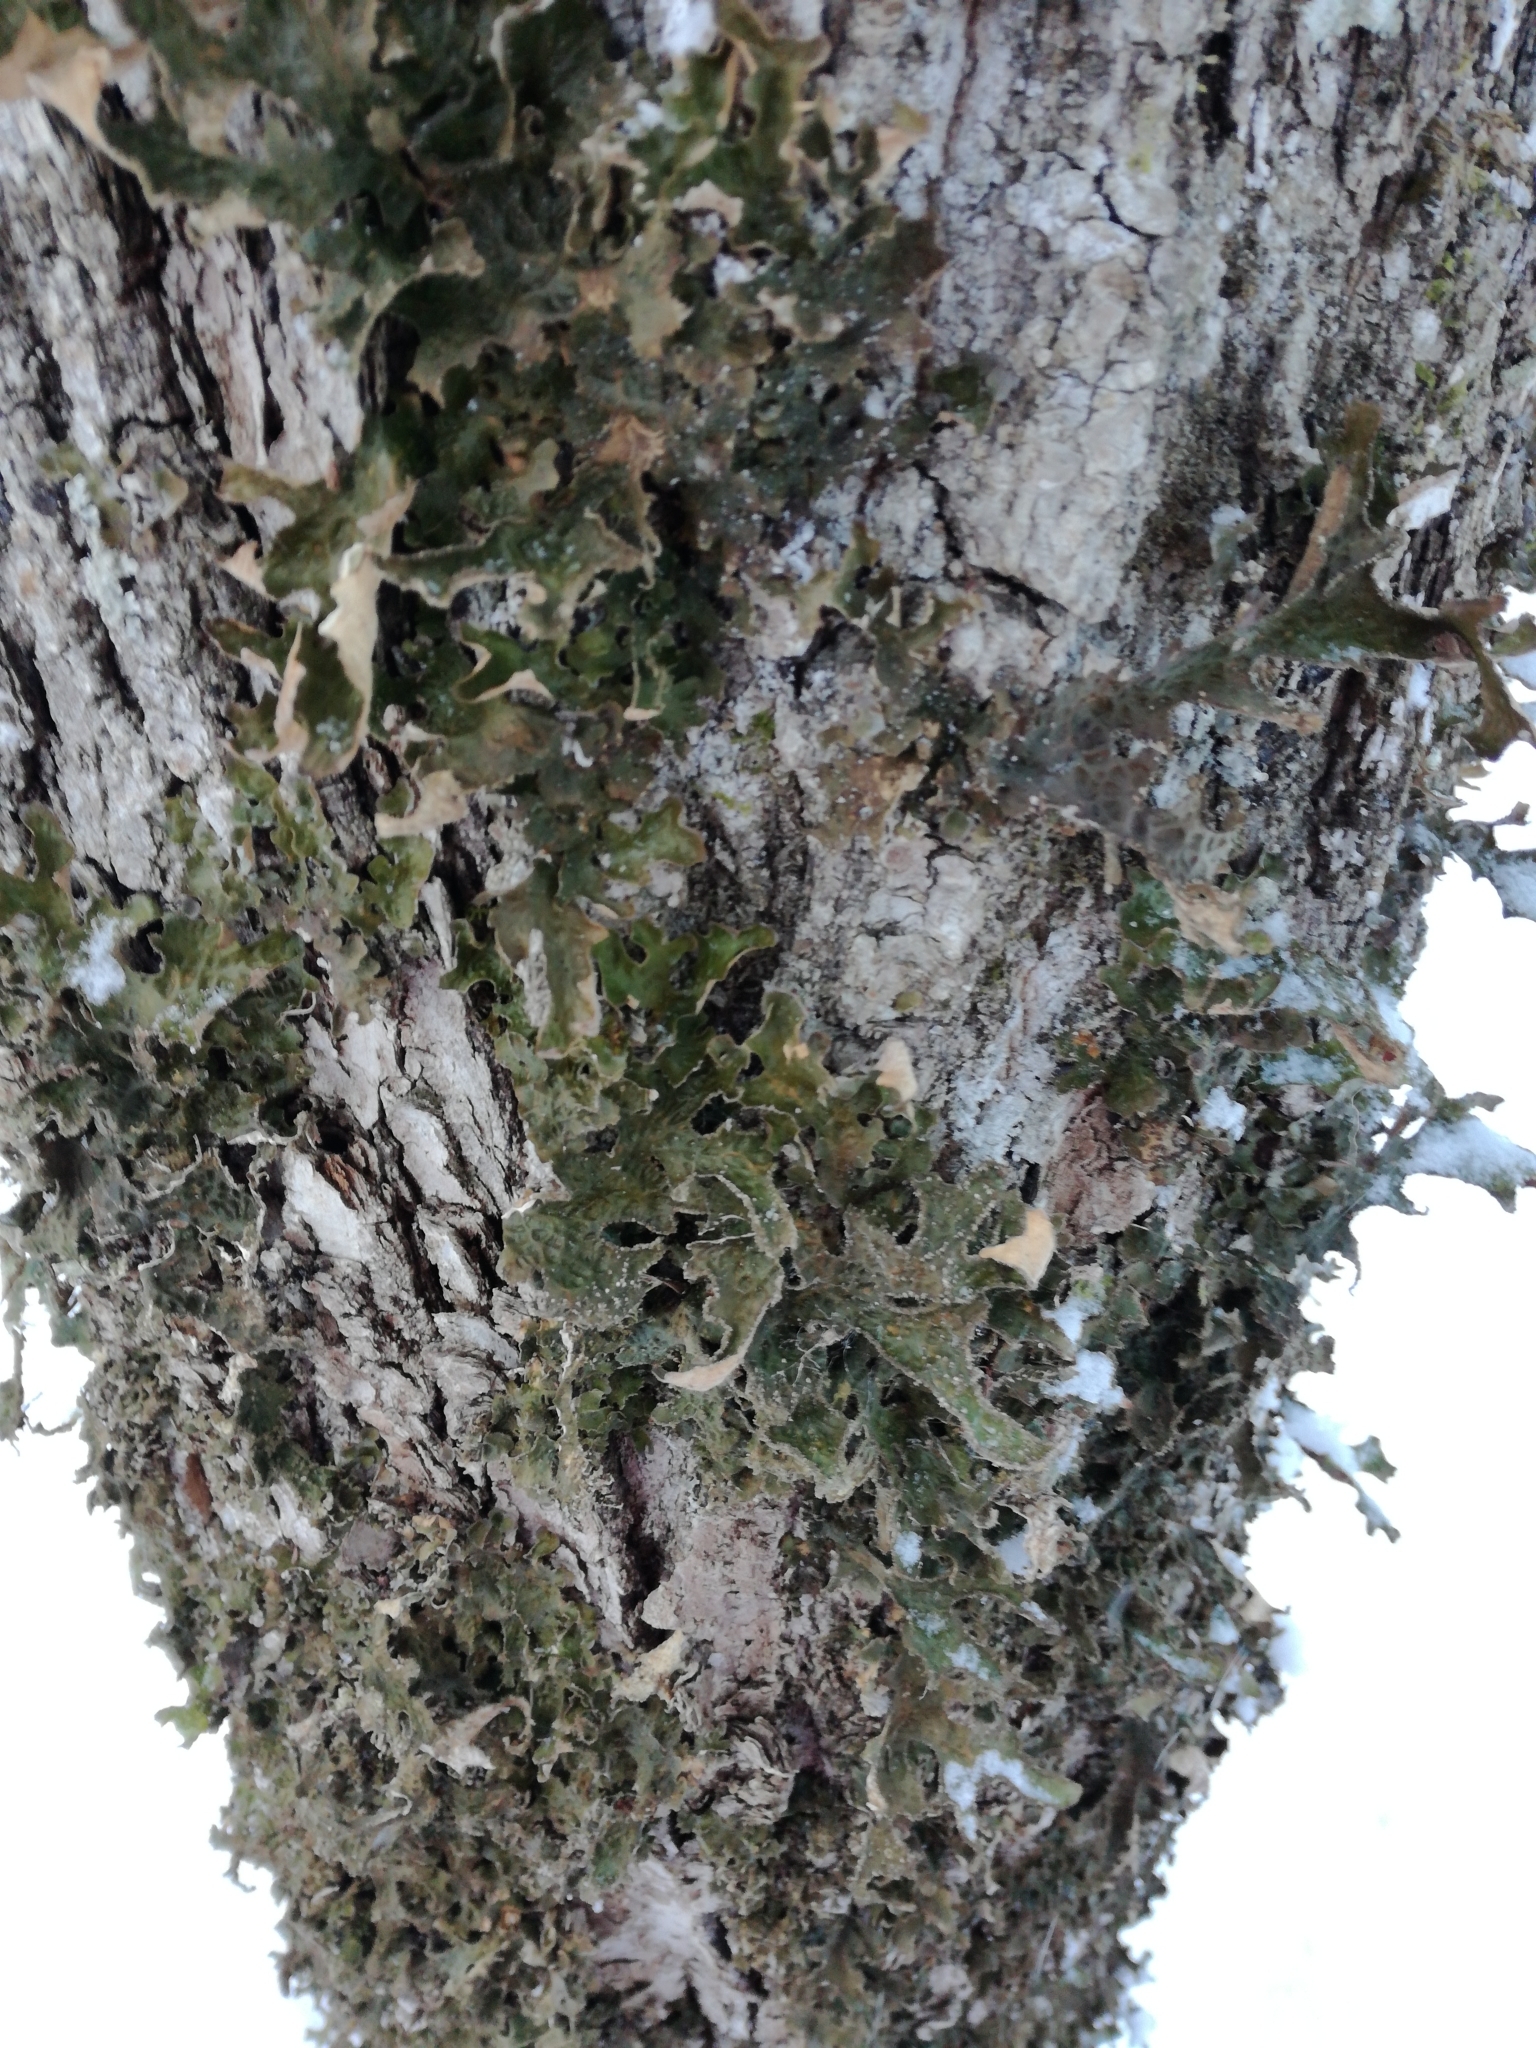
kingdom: Fungi
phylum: Ascomycota
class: Lecanoromycetes
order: Peltigerales
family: Lobariaceae
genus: Lobaria
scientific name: Lobaria pulmonaria
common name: Lungwort
